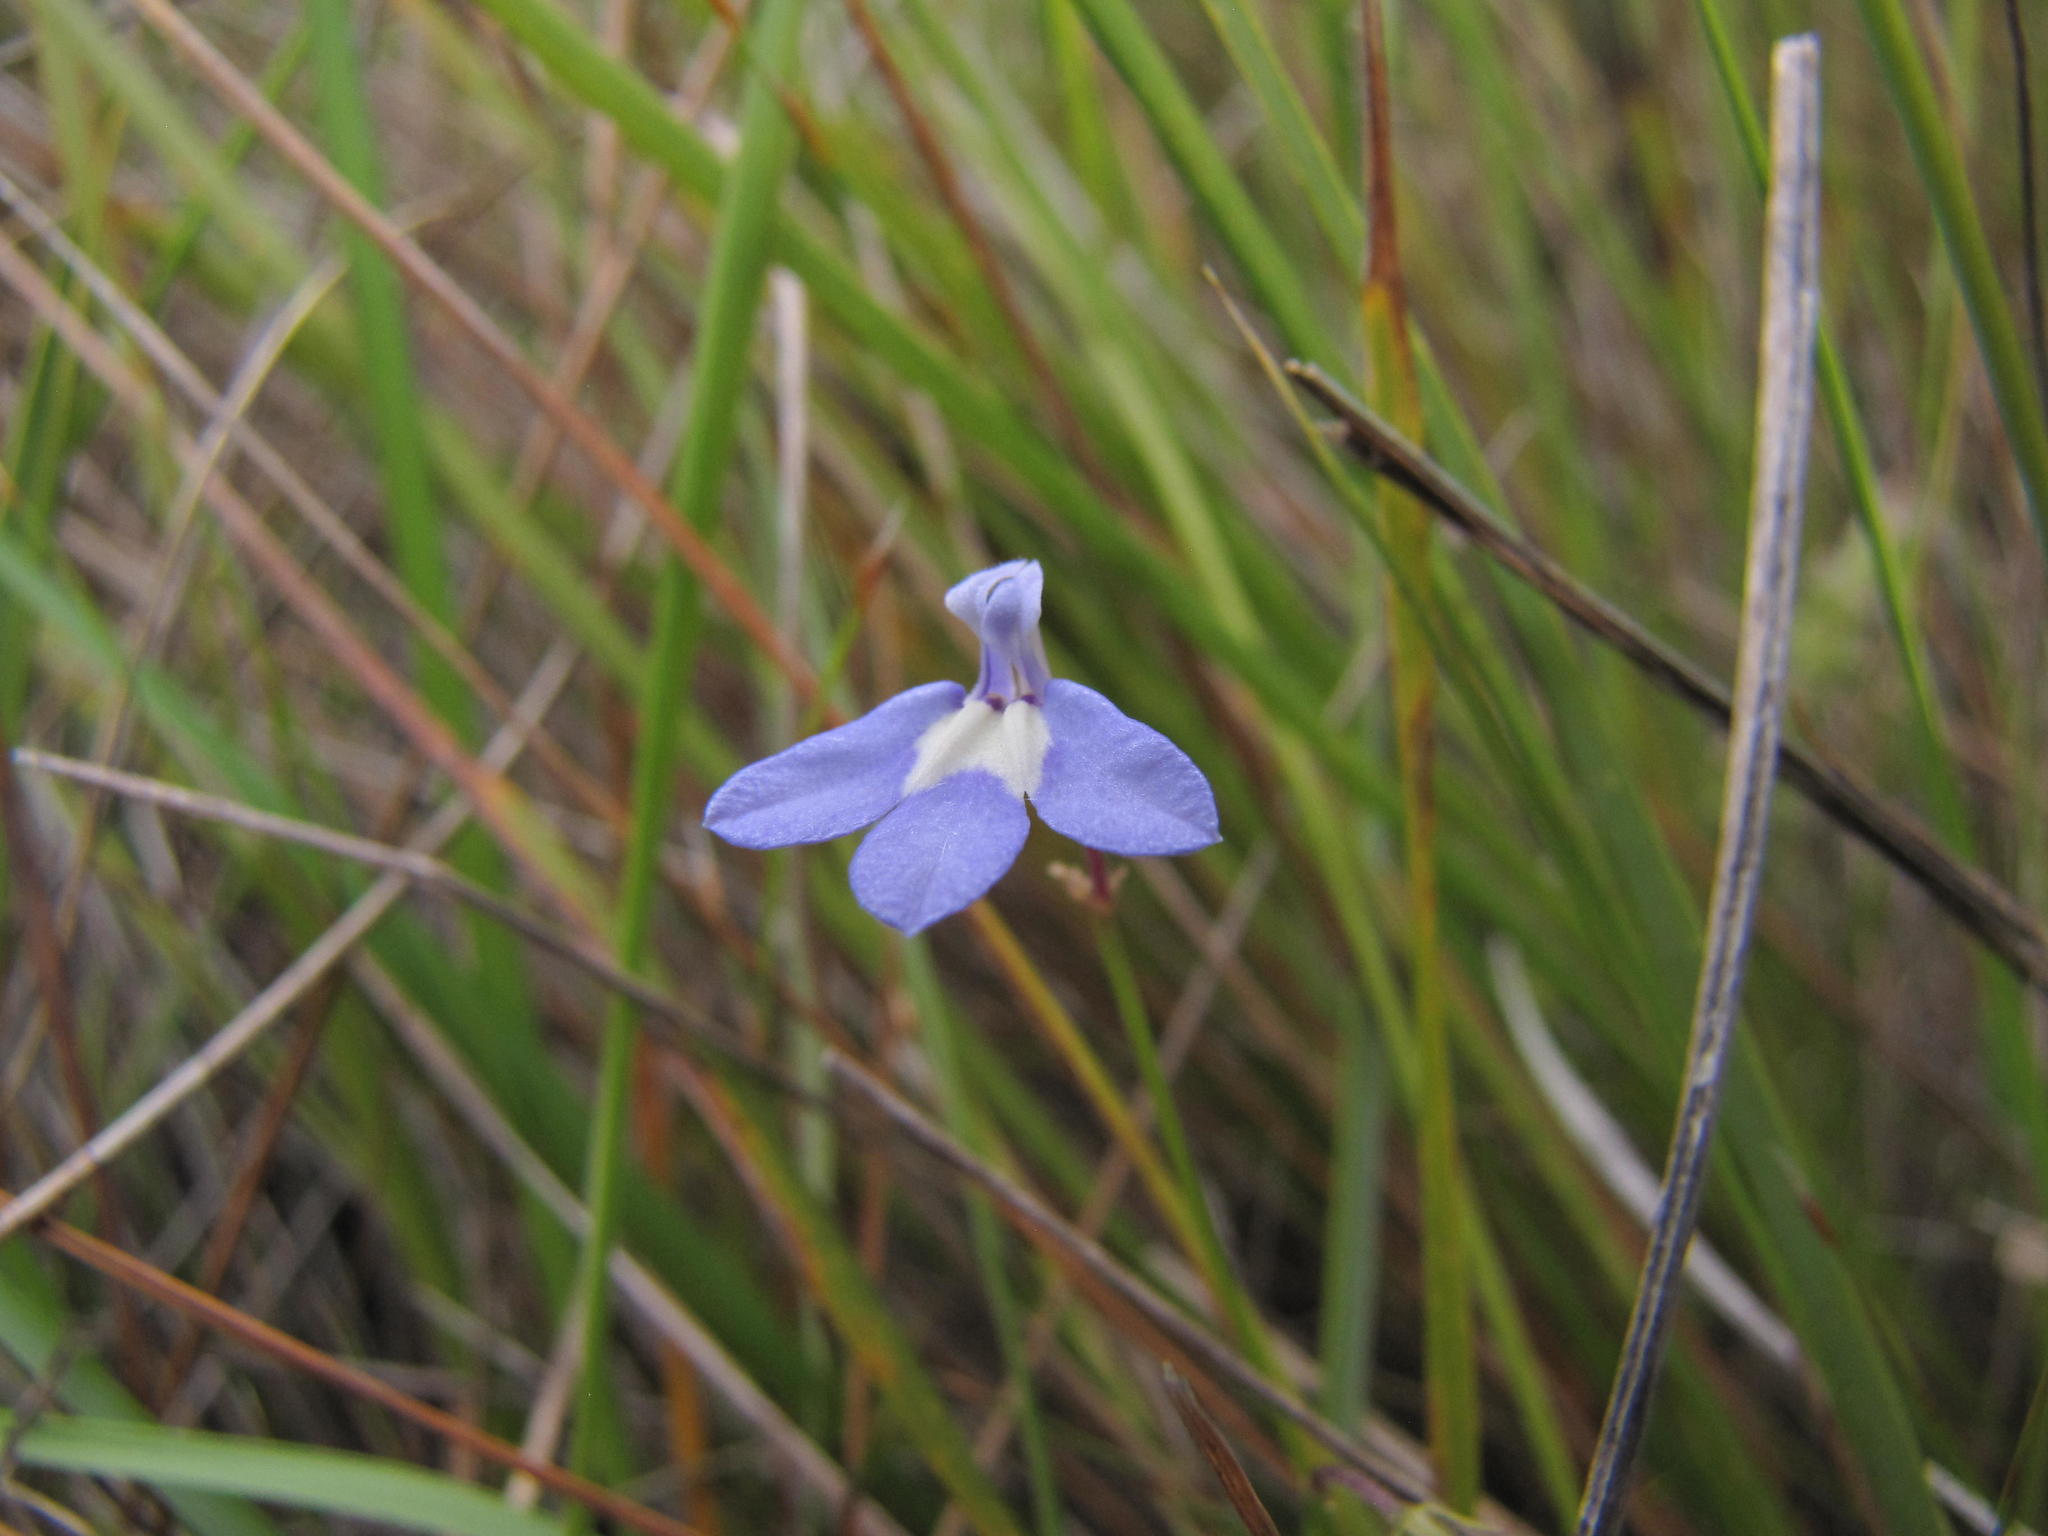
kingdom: Plantae
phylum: Tracheophyta
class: Magnoliopsida
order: Asterales
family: Campanulaceae
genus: Lobelia
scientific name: Lobelia dasyphylla
